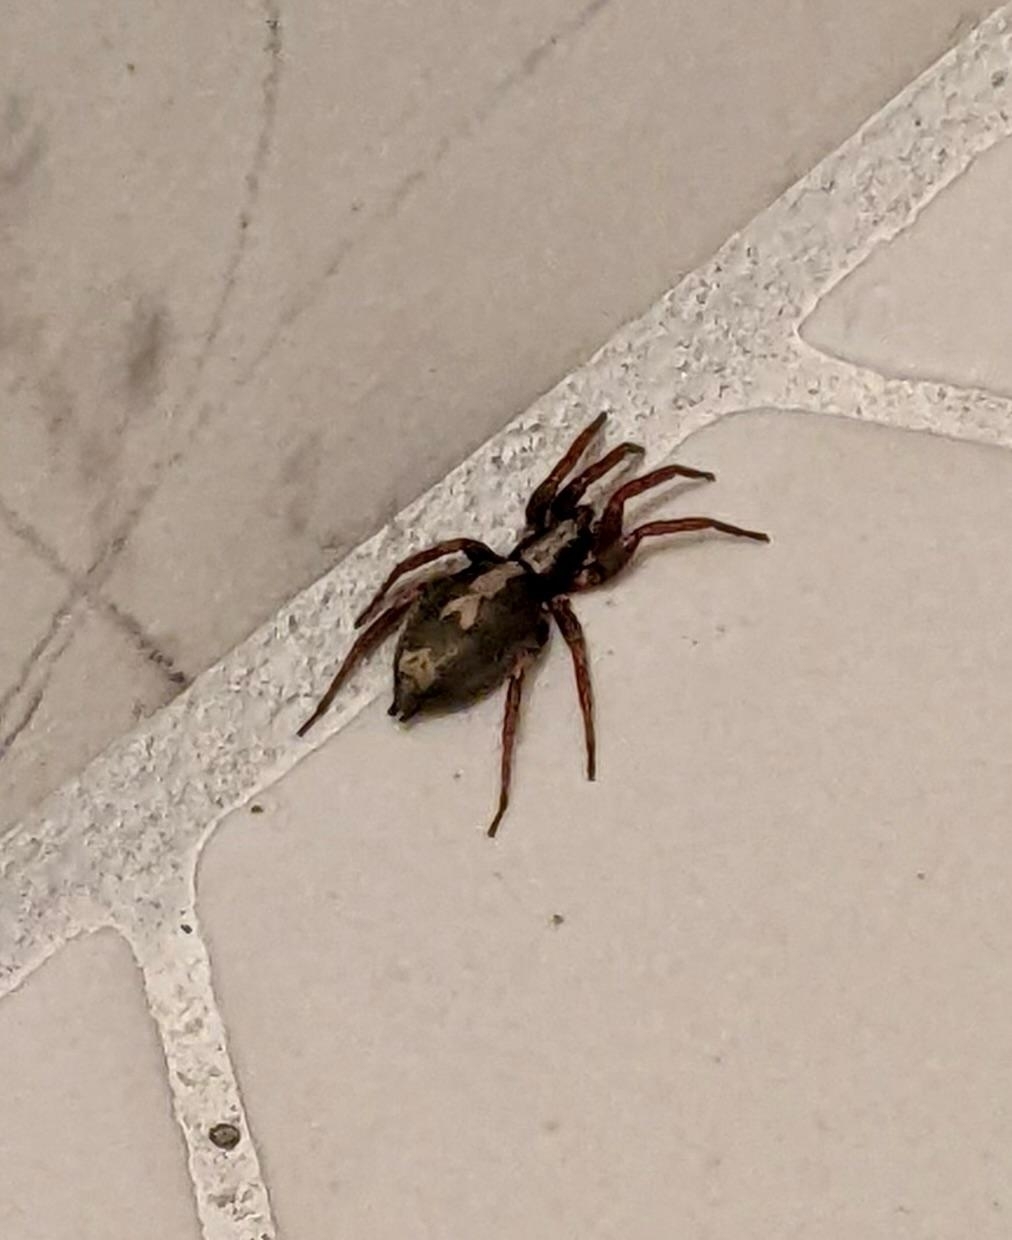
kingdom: Animalia
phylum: Arthropoda
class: Arachnida
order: Araneae
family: Gnaphosidae
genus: Herpyllus
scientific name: Herpyllus ecclesiasticus
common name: Eastern parson spider
